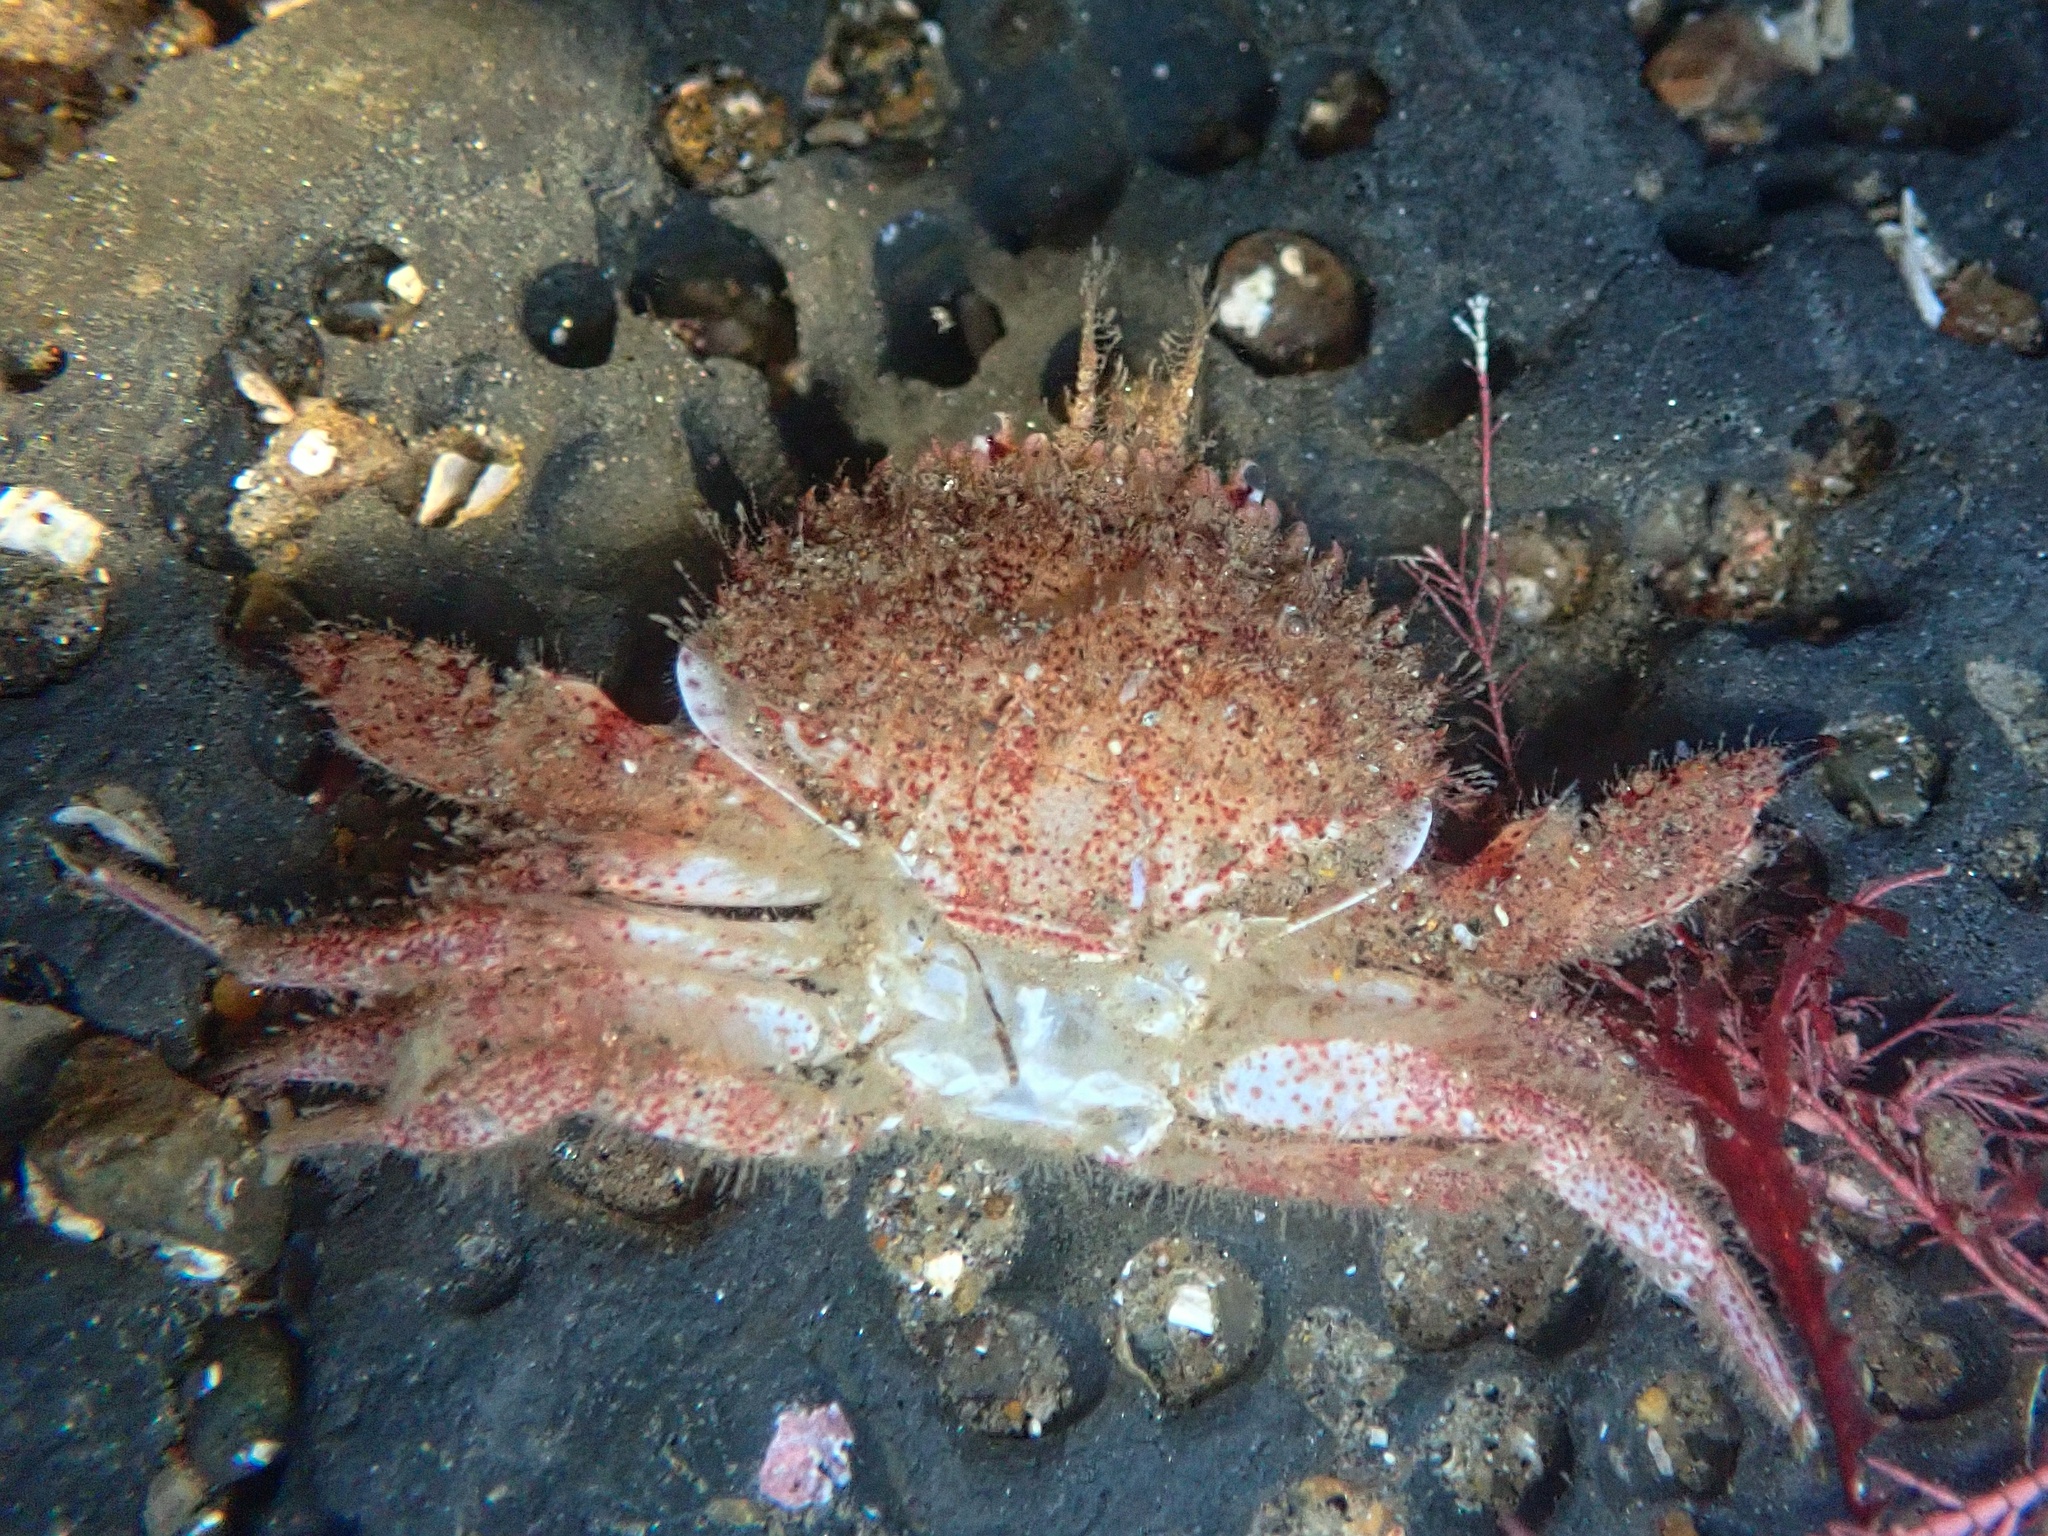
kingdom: Animalia
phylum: Arthropoda
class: Malacostraca
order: Decapoda
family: Cancridae
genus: Romaleon
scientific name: Romaleon antennarium
